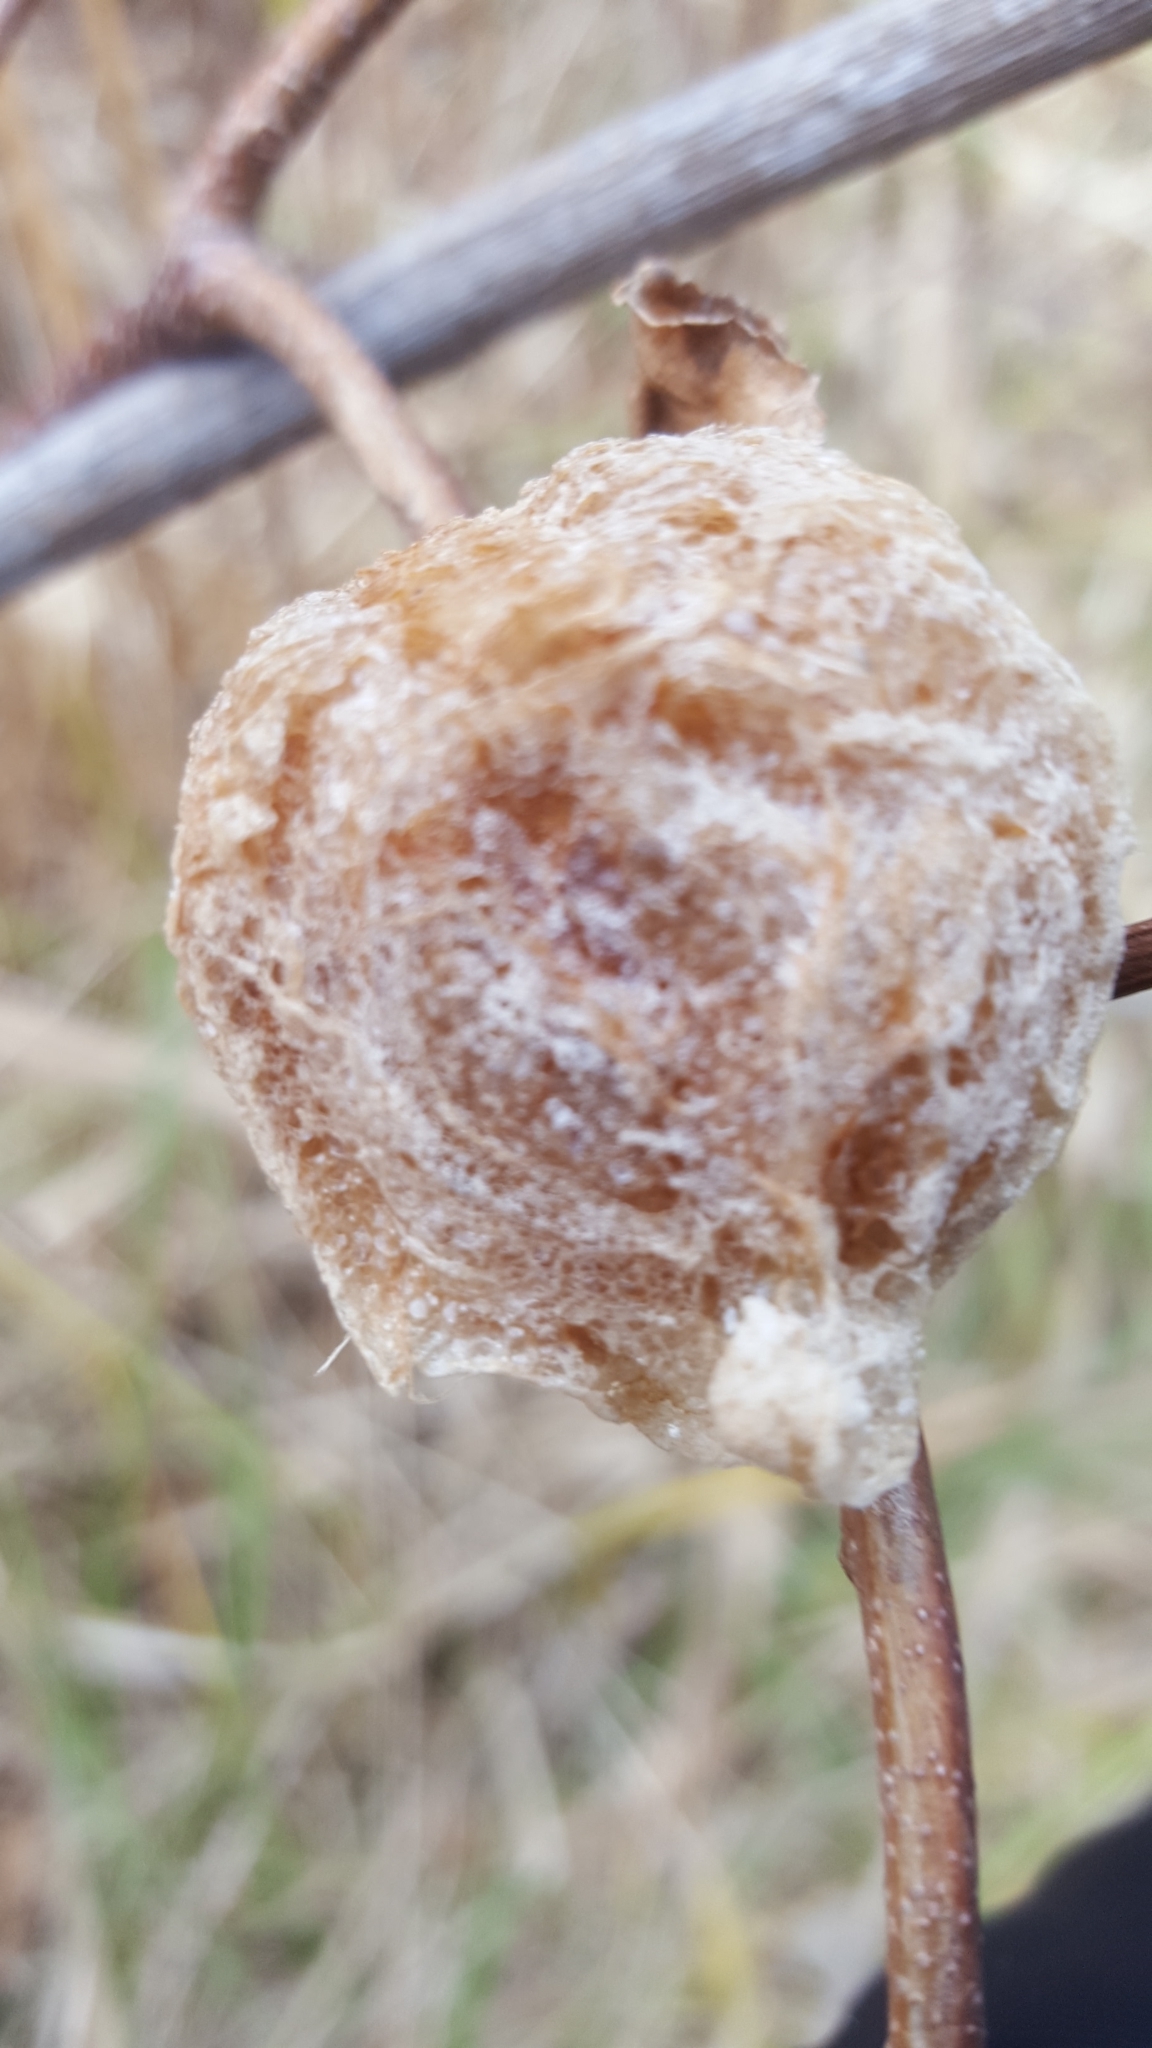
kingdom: Animalia
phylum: Arthropoda
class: Insecta
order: Mantodea
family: Mantidae
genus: Tenodera
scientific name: Tenodera sinensis
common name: Chinese mantis
